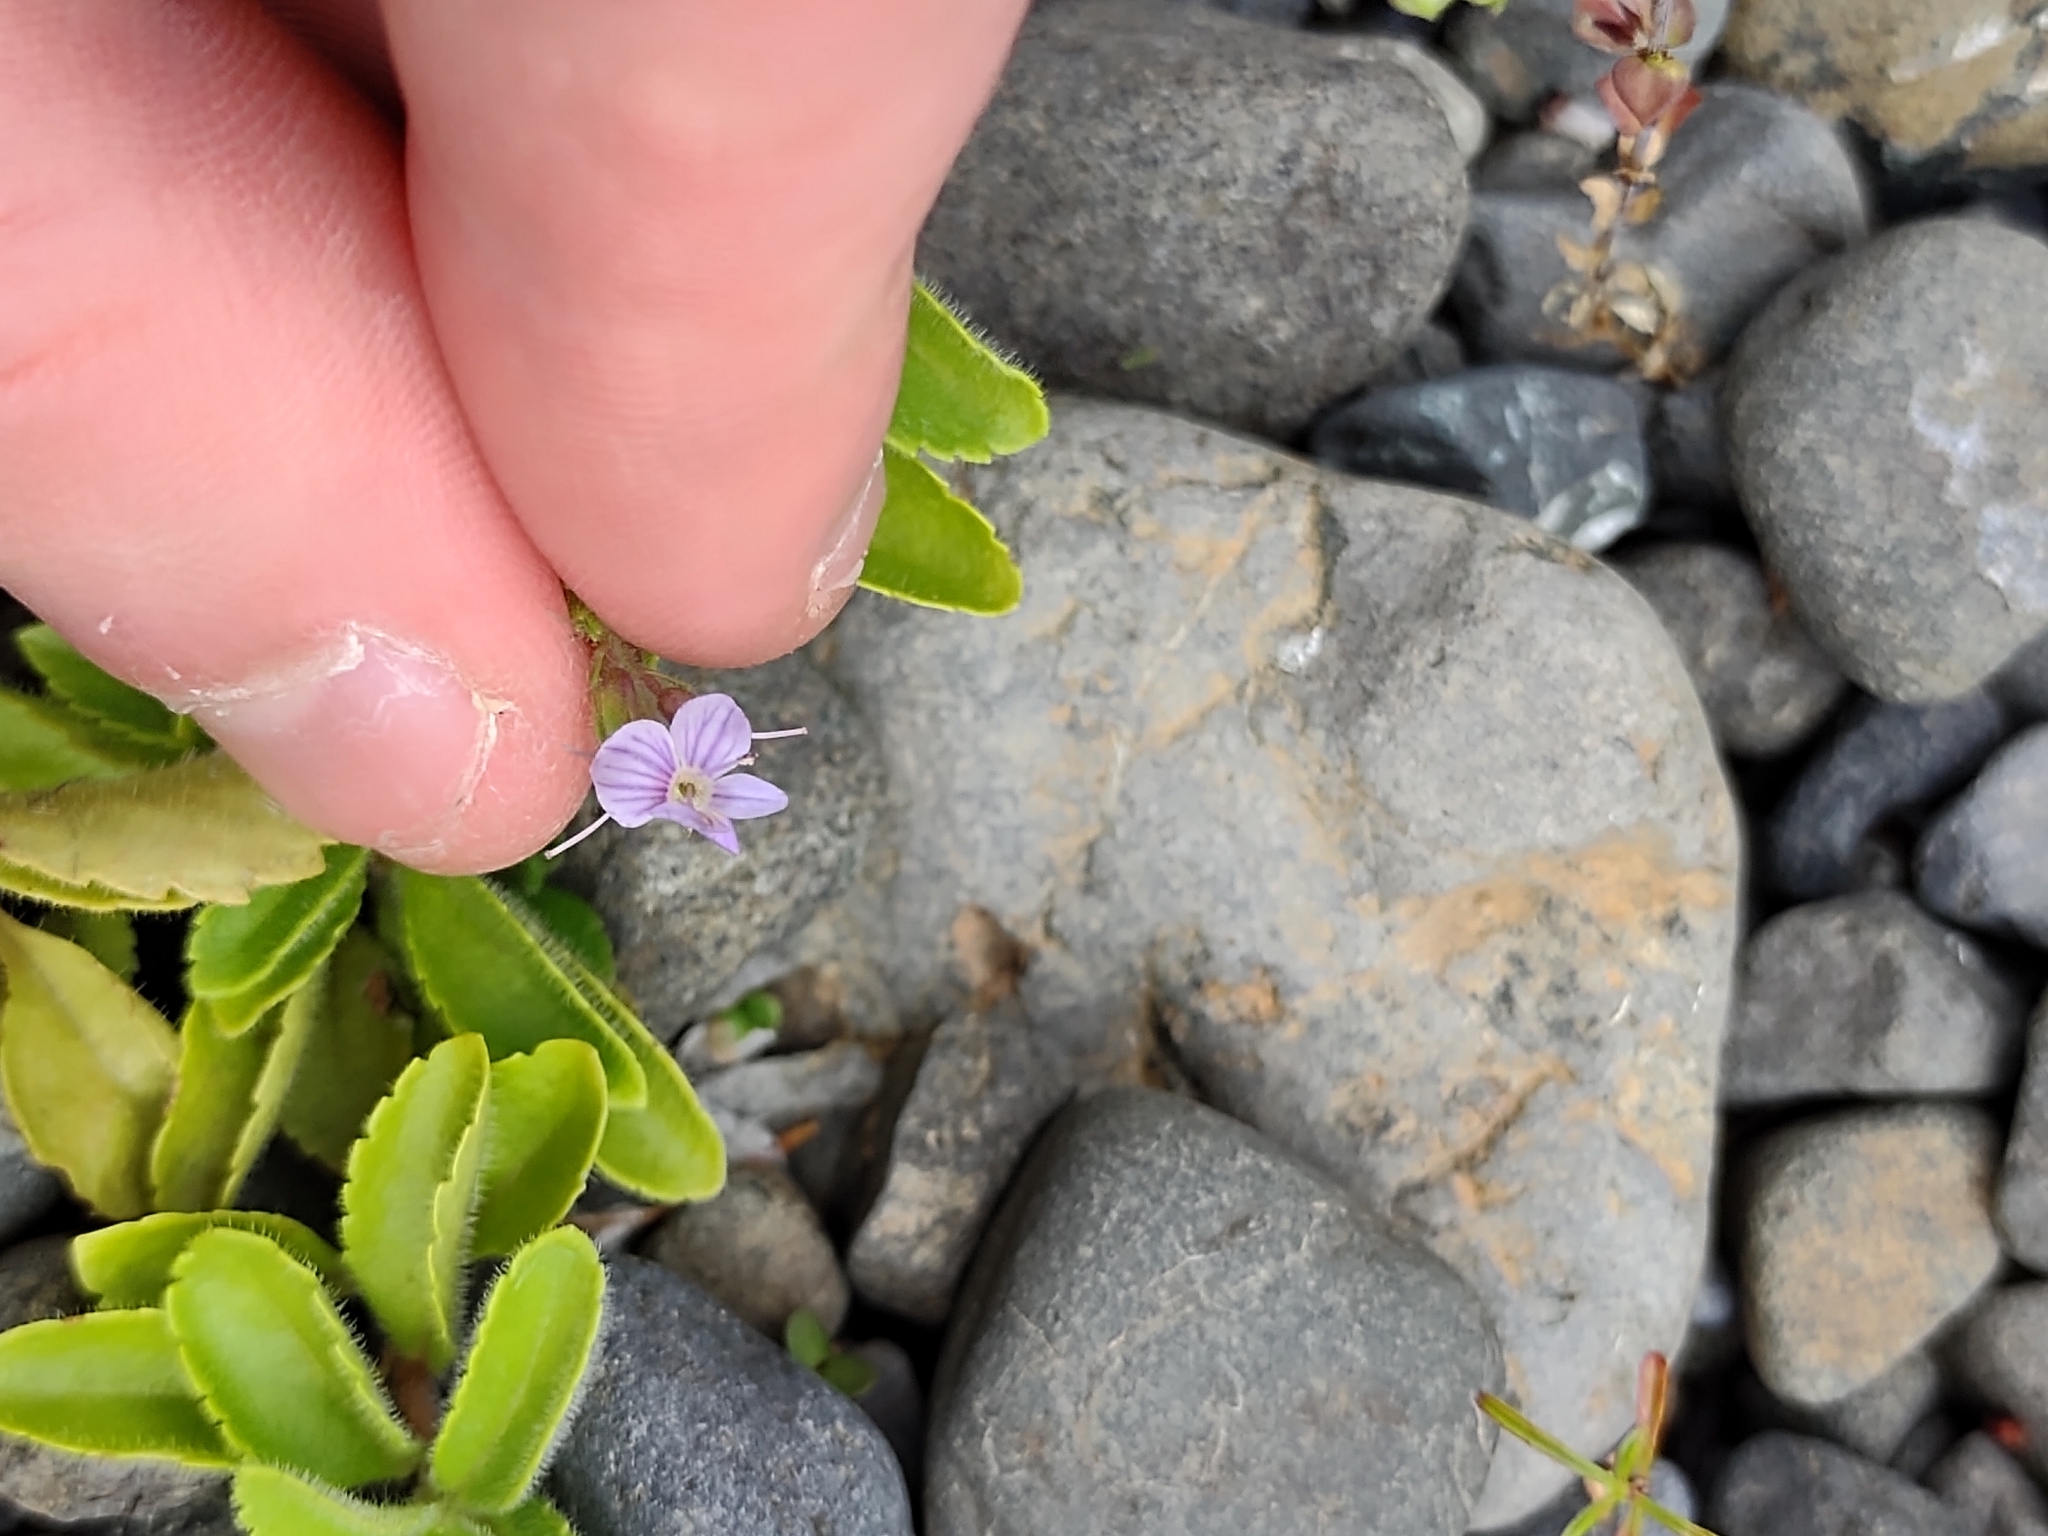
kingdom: Plantae
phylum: Tracheophyta
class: Magnoliopsida
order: Lamiales
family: Plantaginaceae
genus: Veronica
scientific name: Veronica officinalis
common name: Common speedwell
